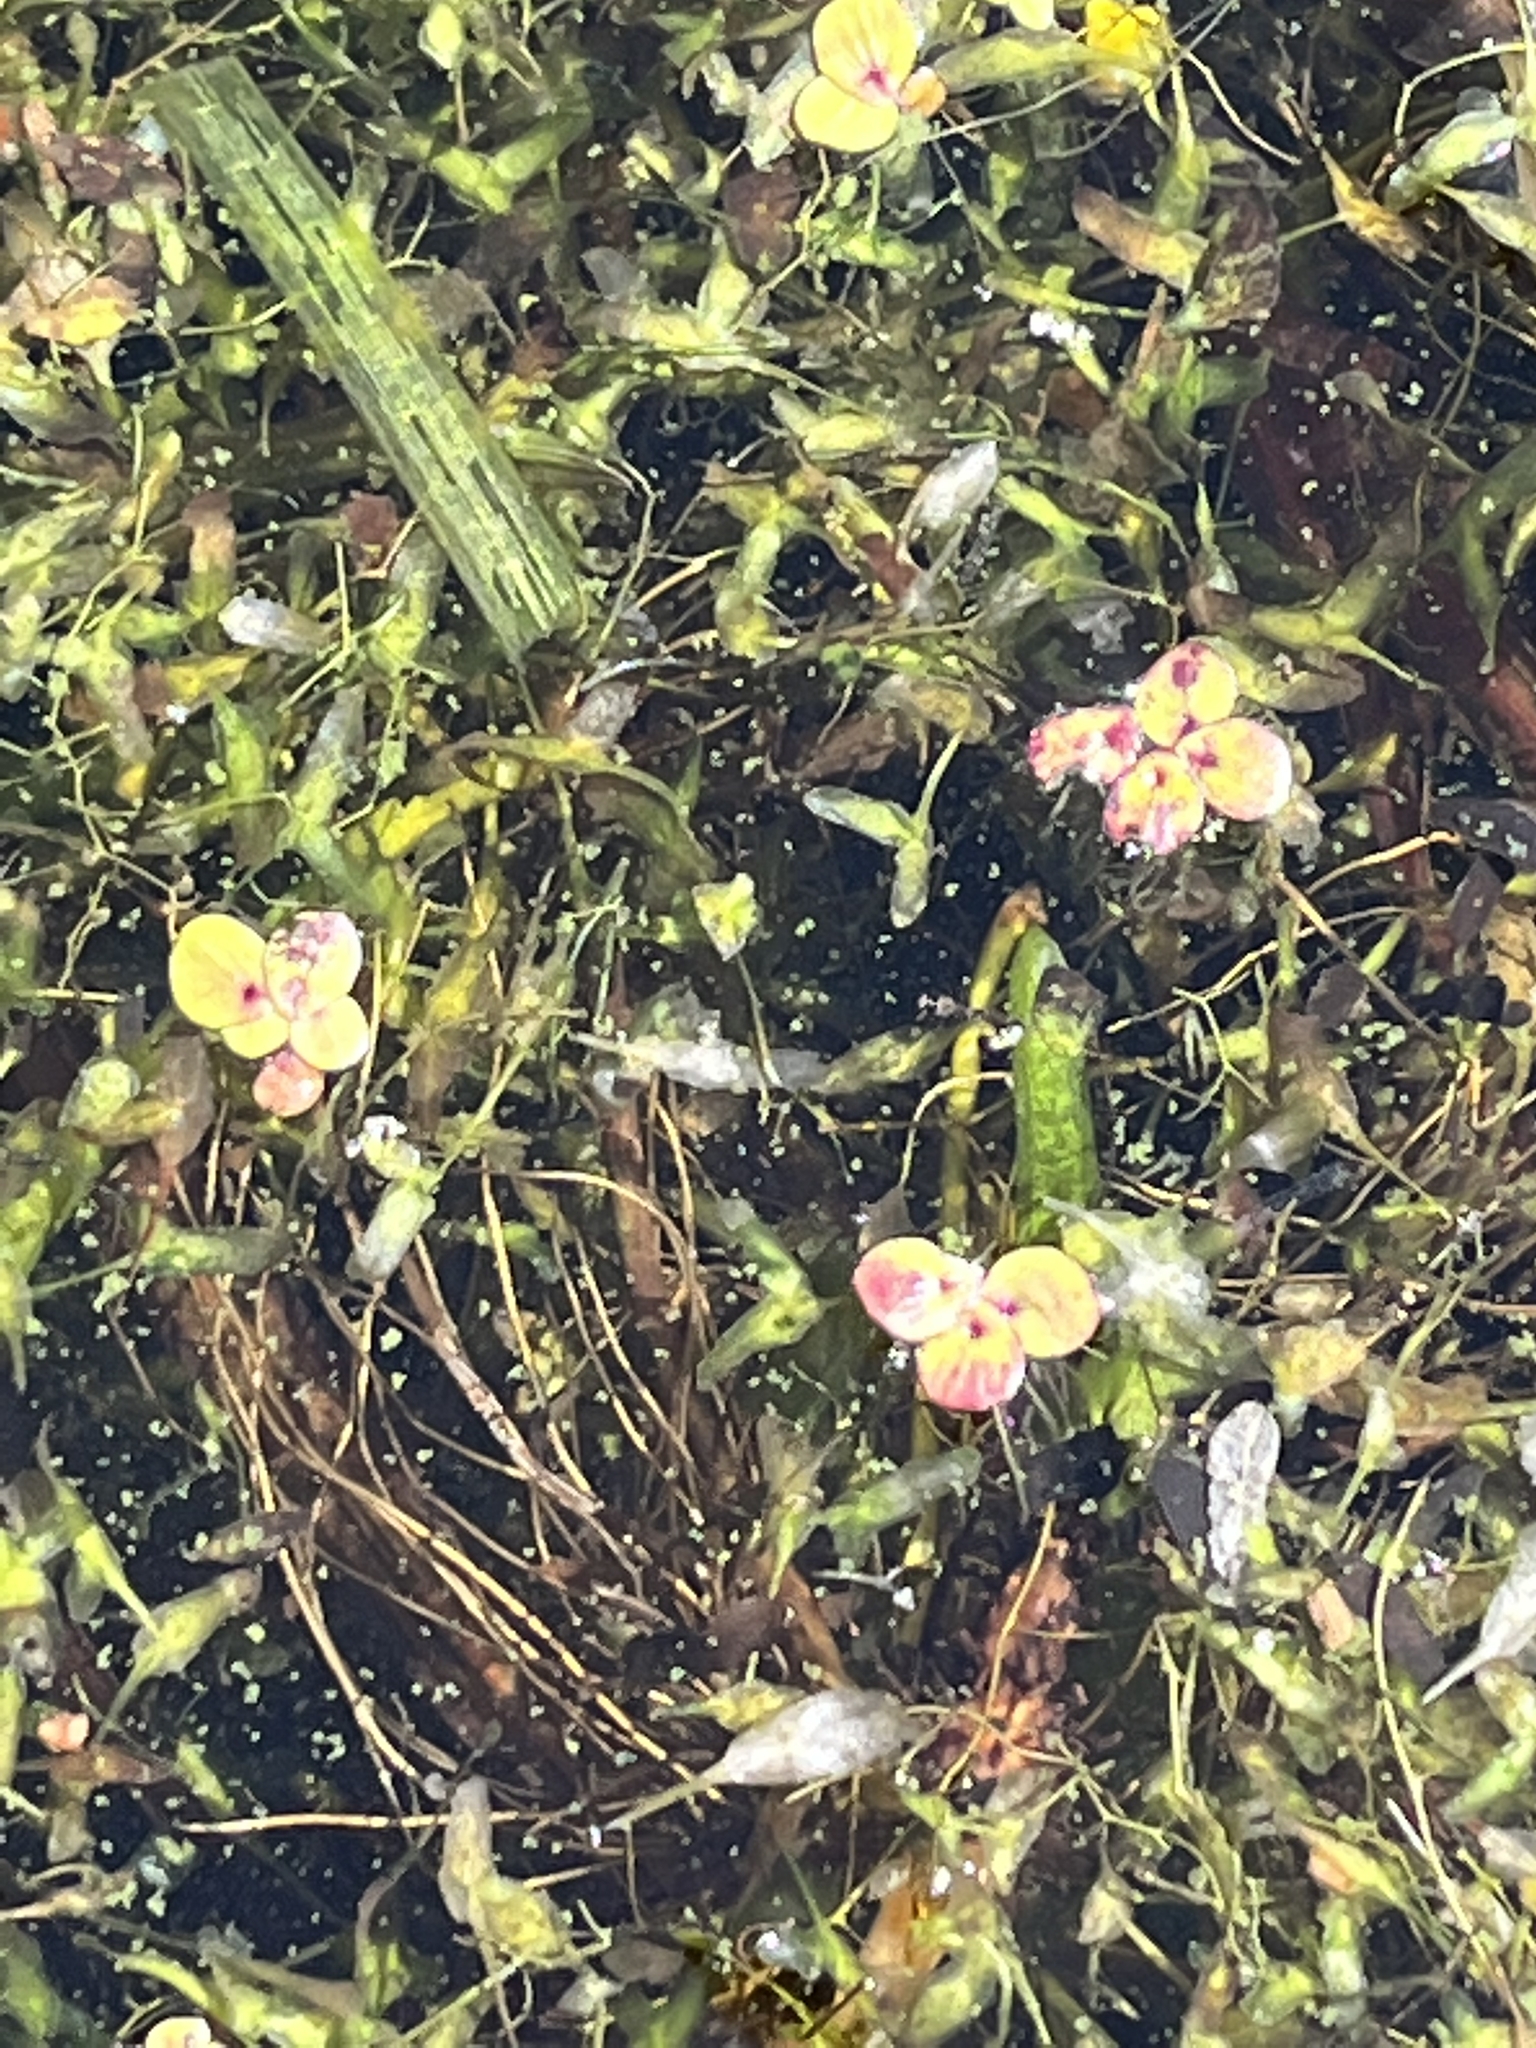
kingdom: Plantae
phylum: Tracheophyta
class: Liliopsida
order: Alismatales
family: Araceae
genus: Spirodela
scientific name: Spirodela polyrhiza
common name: Great duckweed
